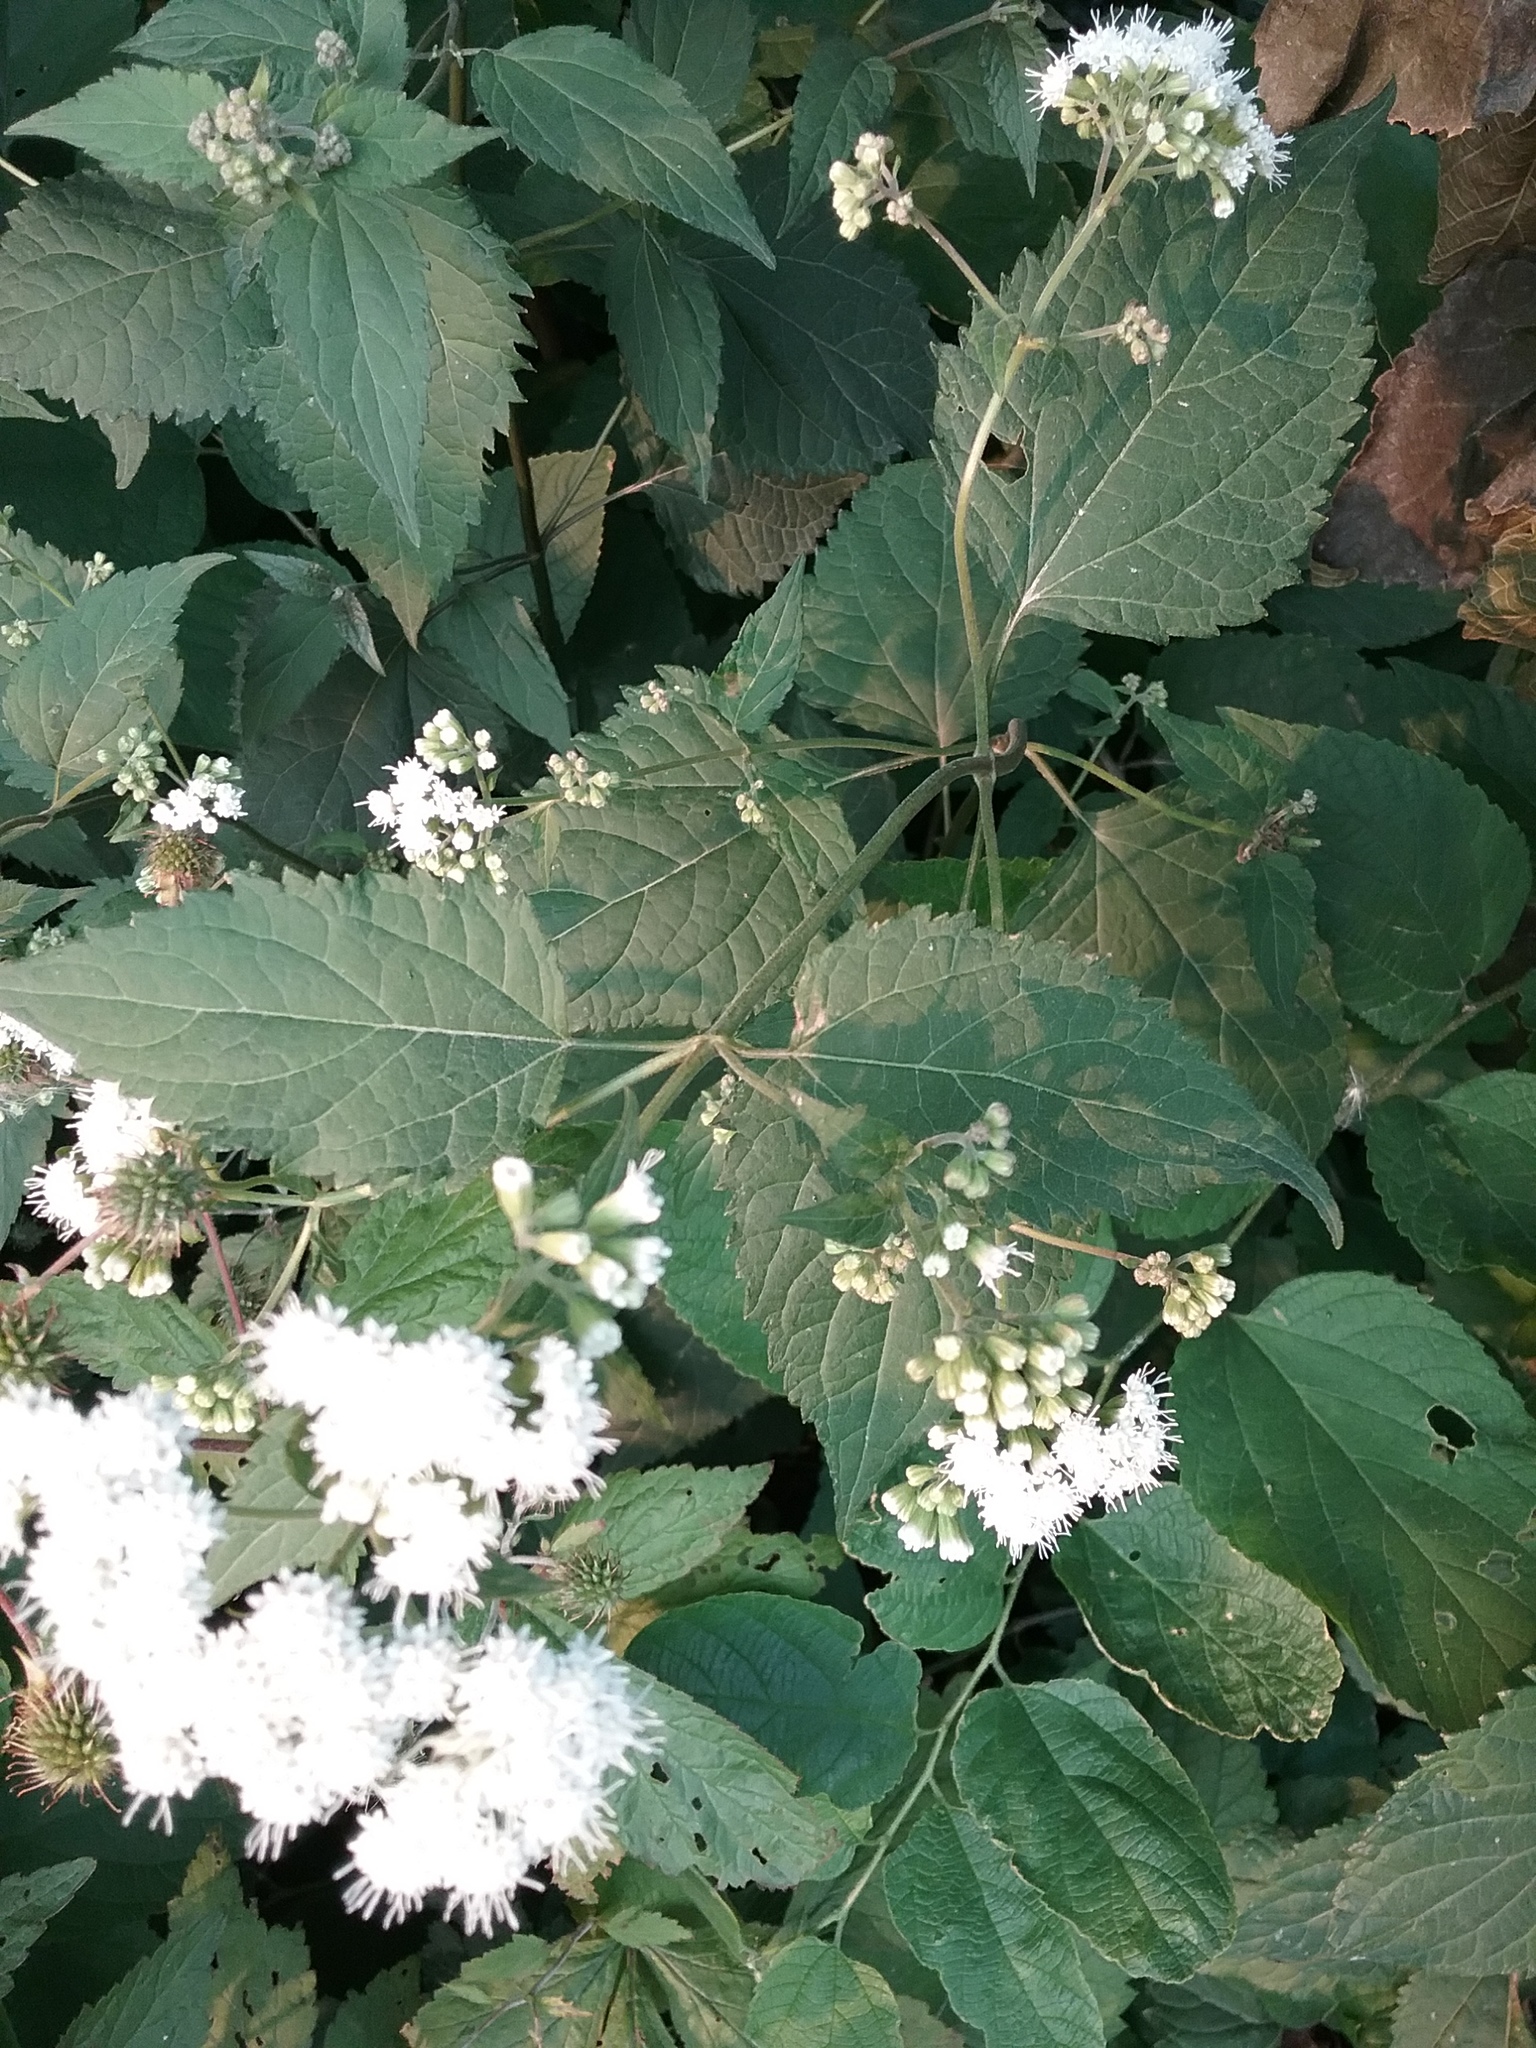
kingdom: Plantae
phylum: Tracheophyta
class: Magnoliopsida
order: Asterales
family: Asteraceae
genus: Ageratina
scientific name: Ageratina altissima
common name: White snakeroot
